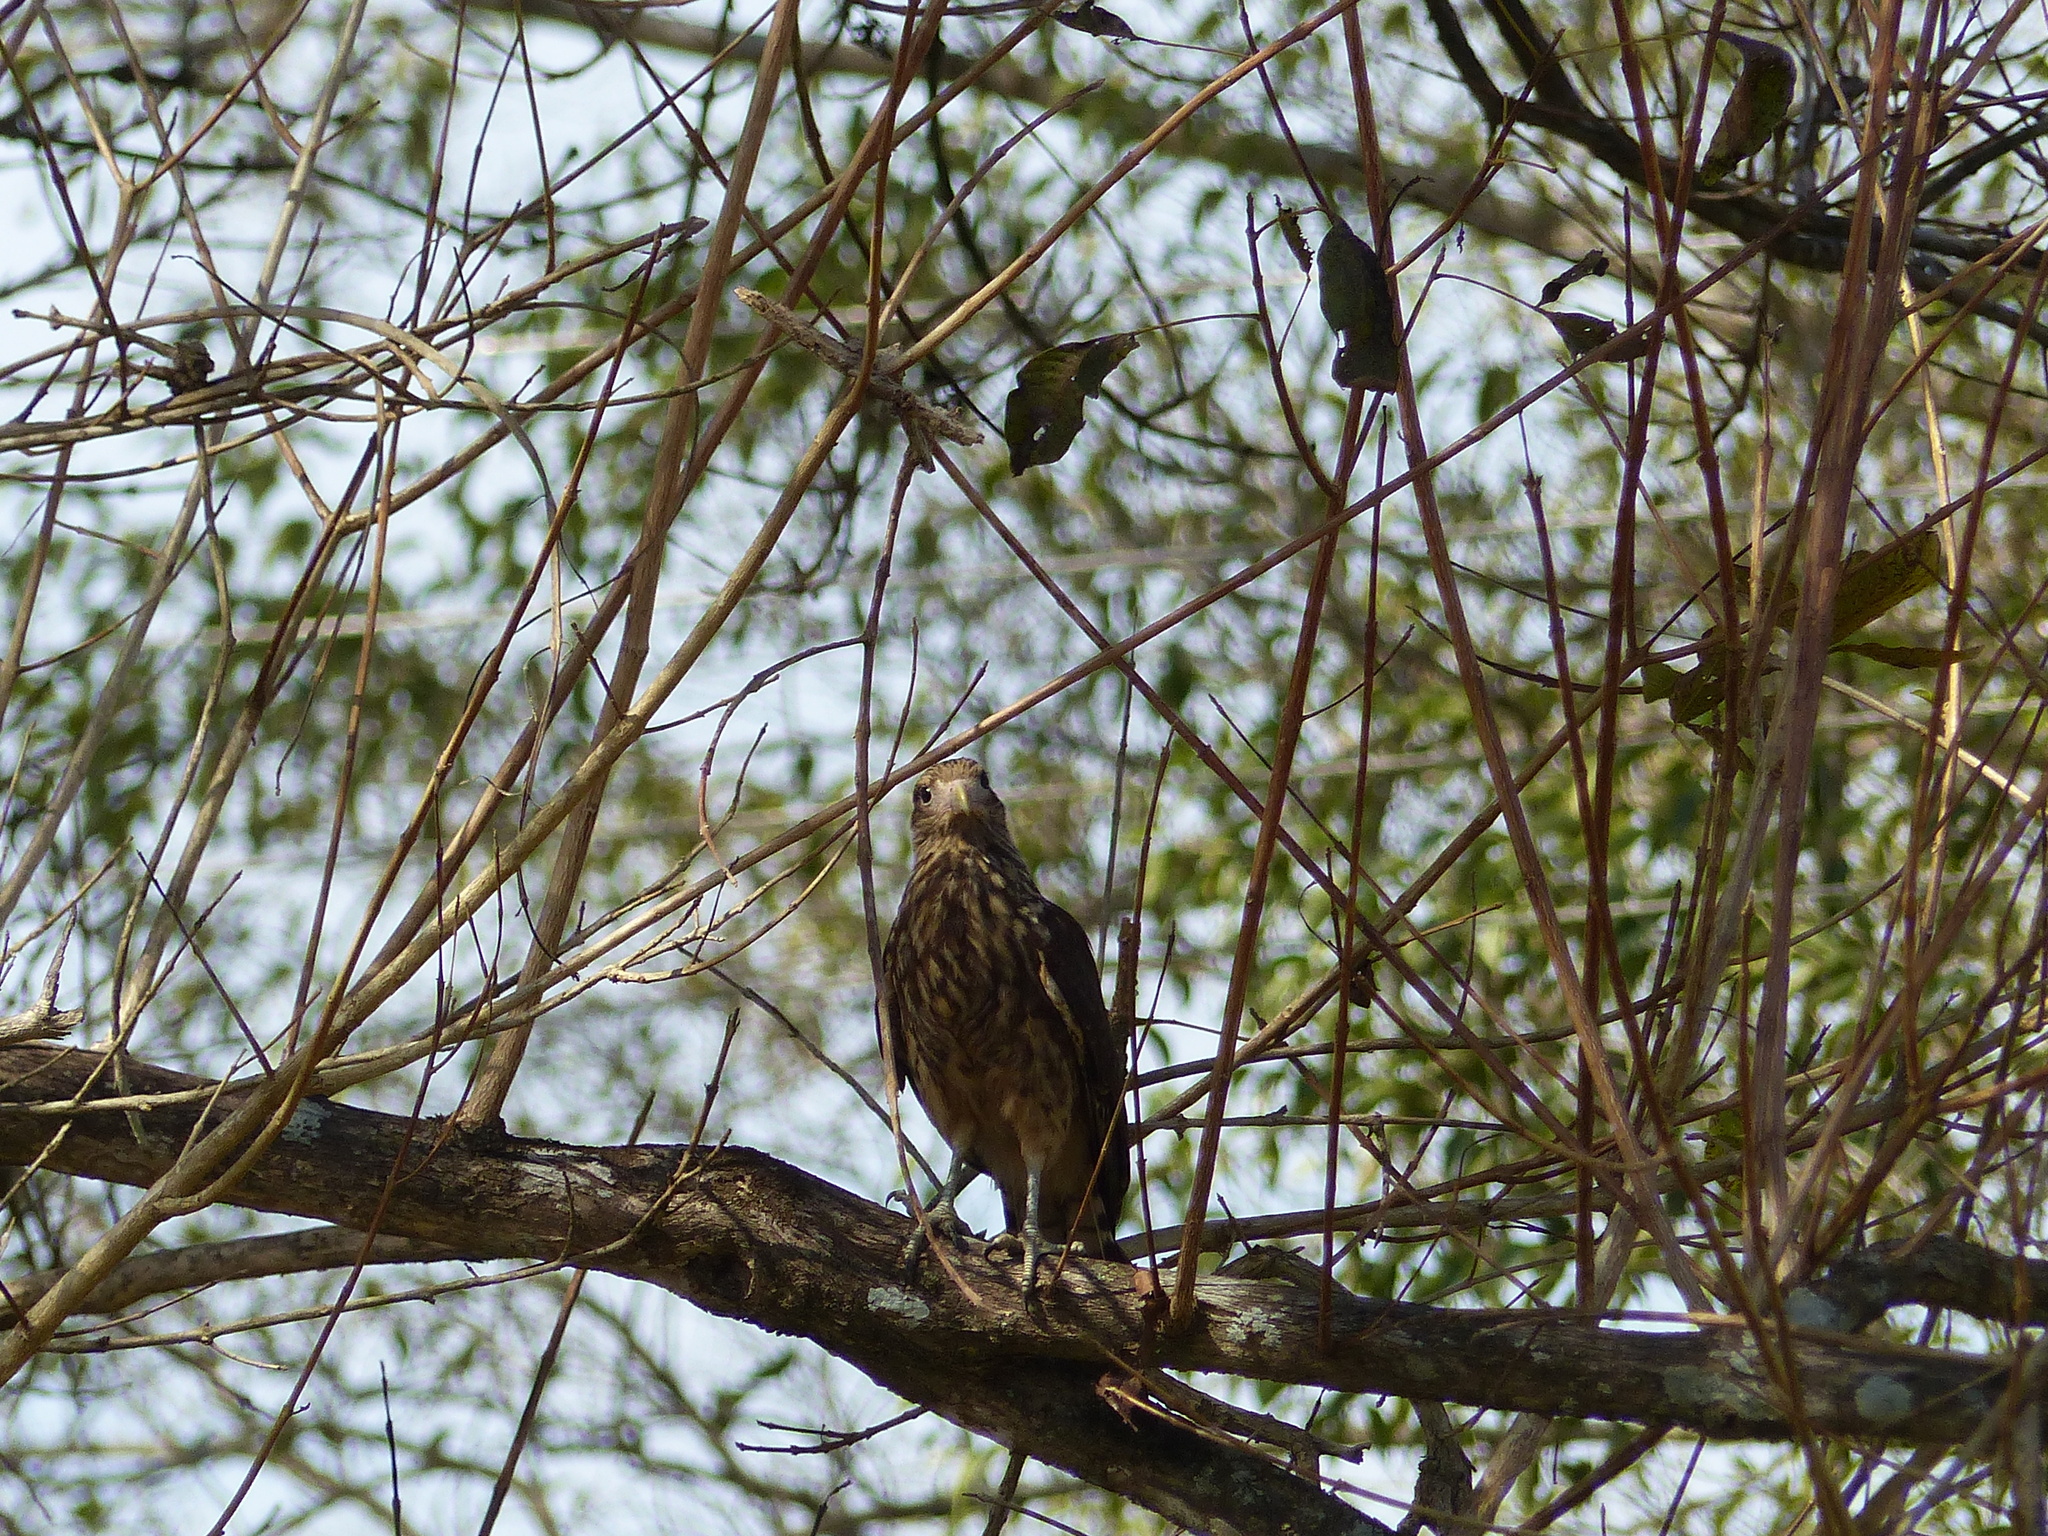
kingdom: Animalia
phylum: Chordata
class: Aves
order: Falconiformes
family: Falconidae
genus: Daptrius
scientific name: Daptrius
